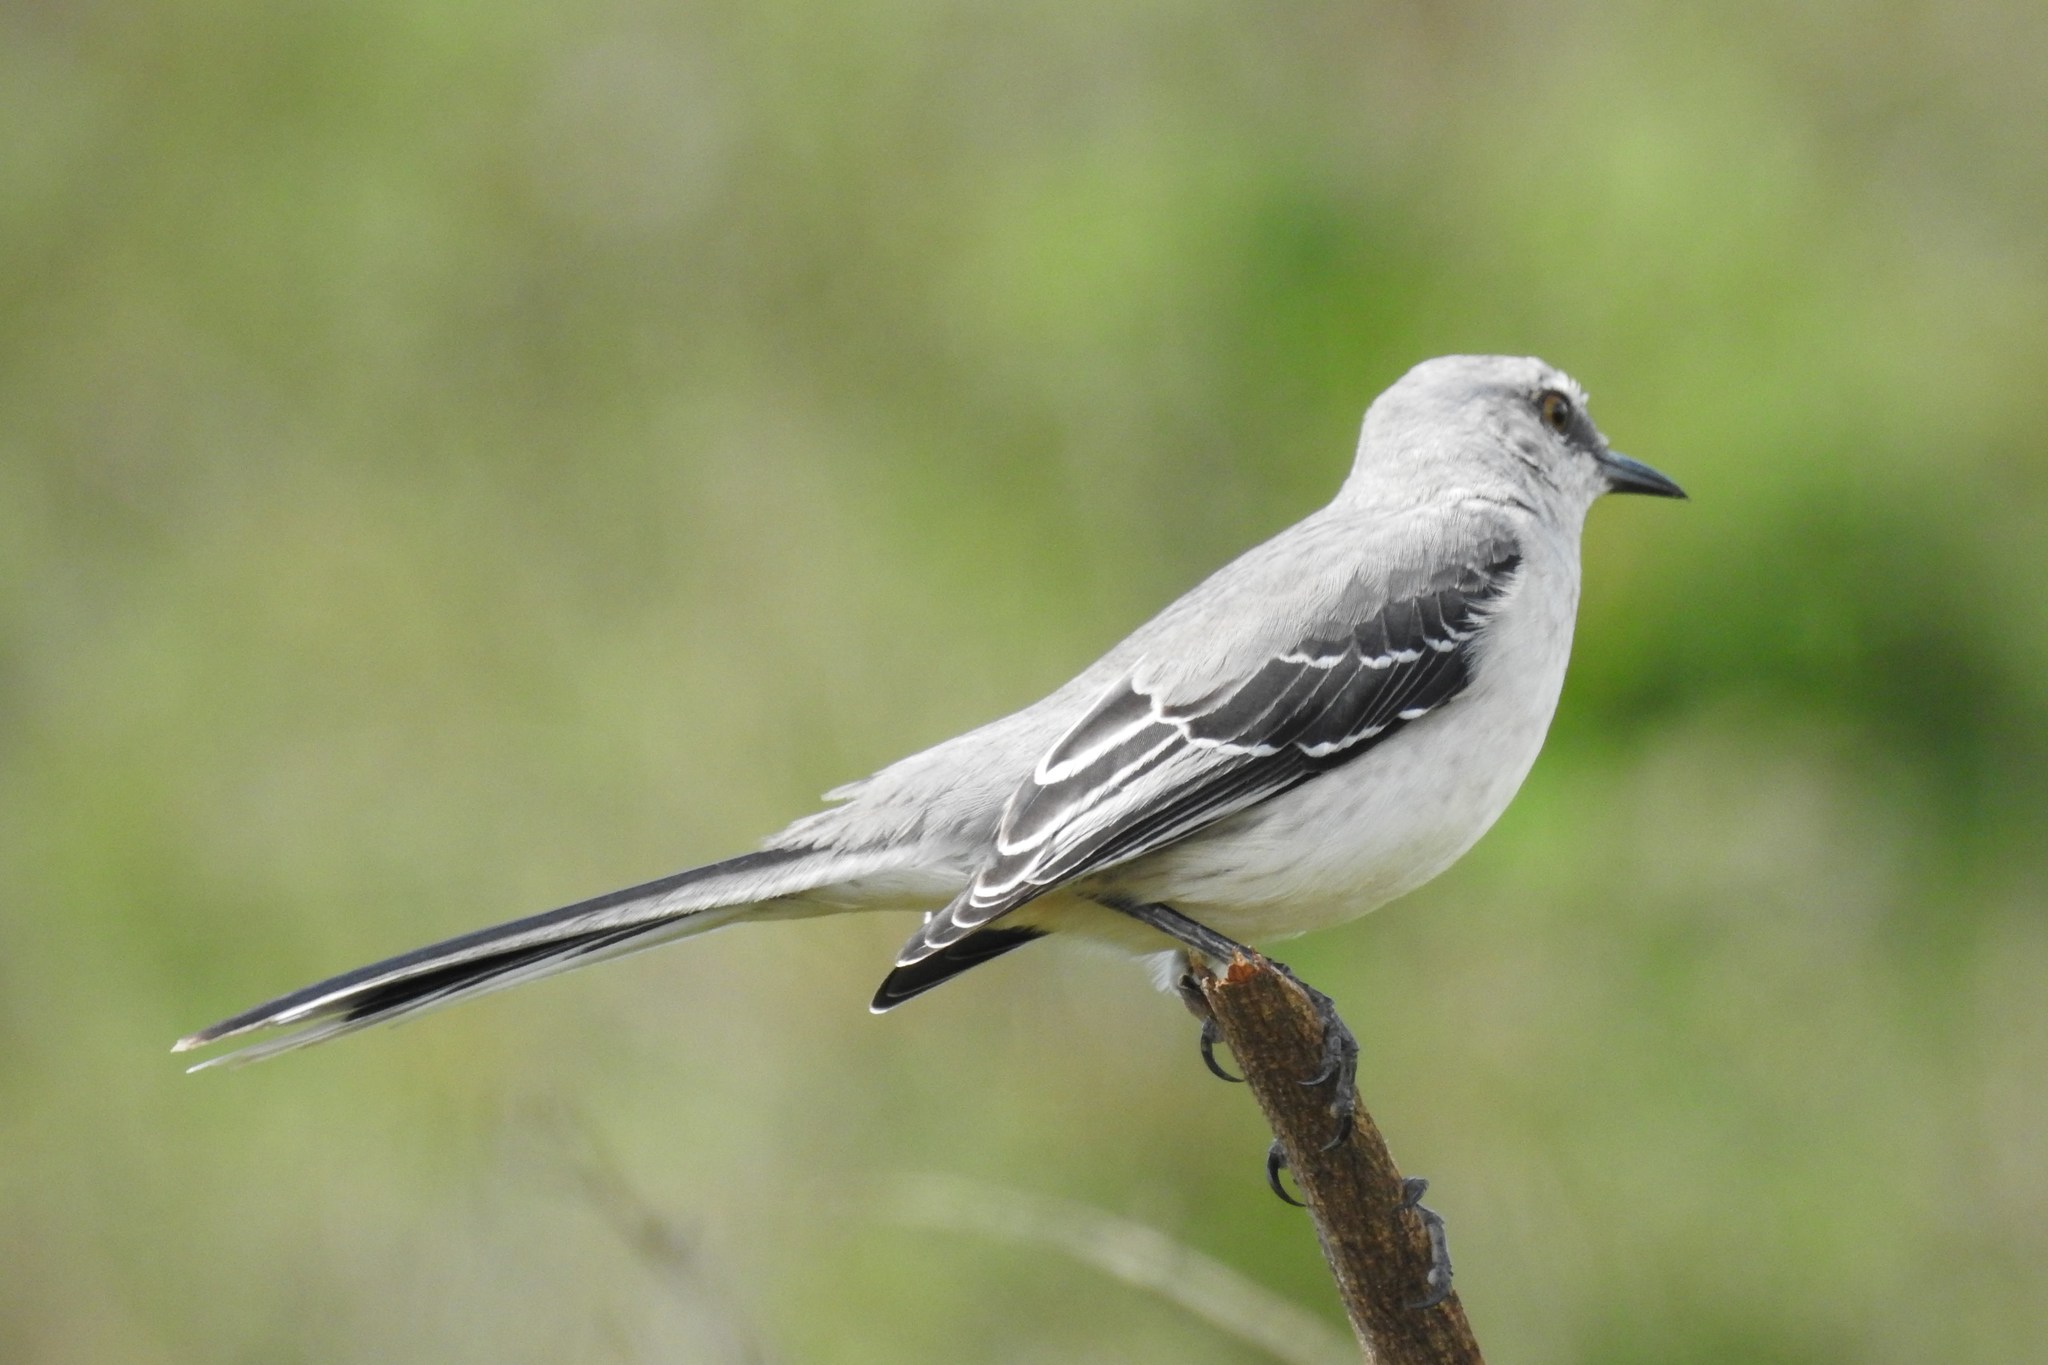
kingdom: Animalia
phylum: Chordata
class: Aves
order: Passeriformes
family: Mimidae
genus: Mimus
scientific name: Mimus gilvus
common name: Tropical mockingbird
